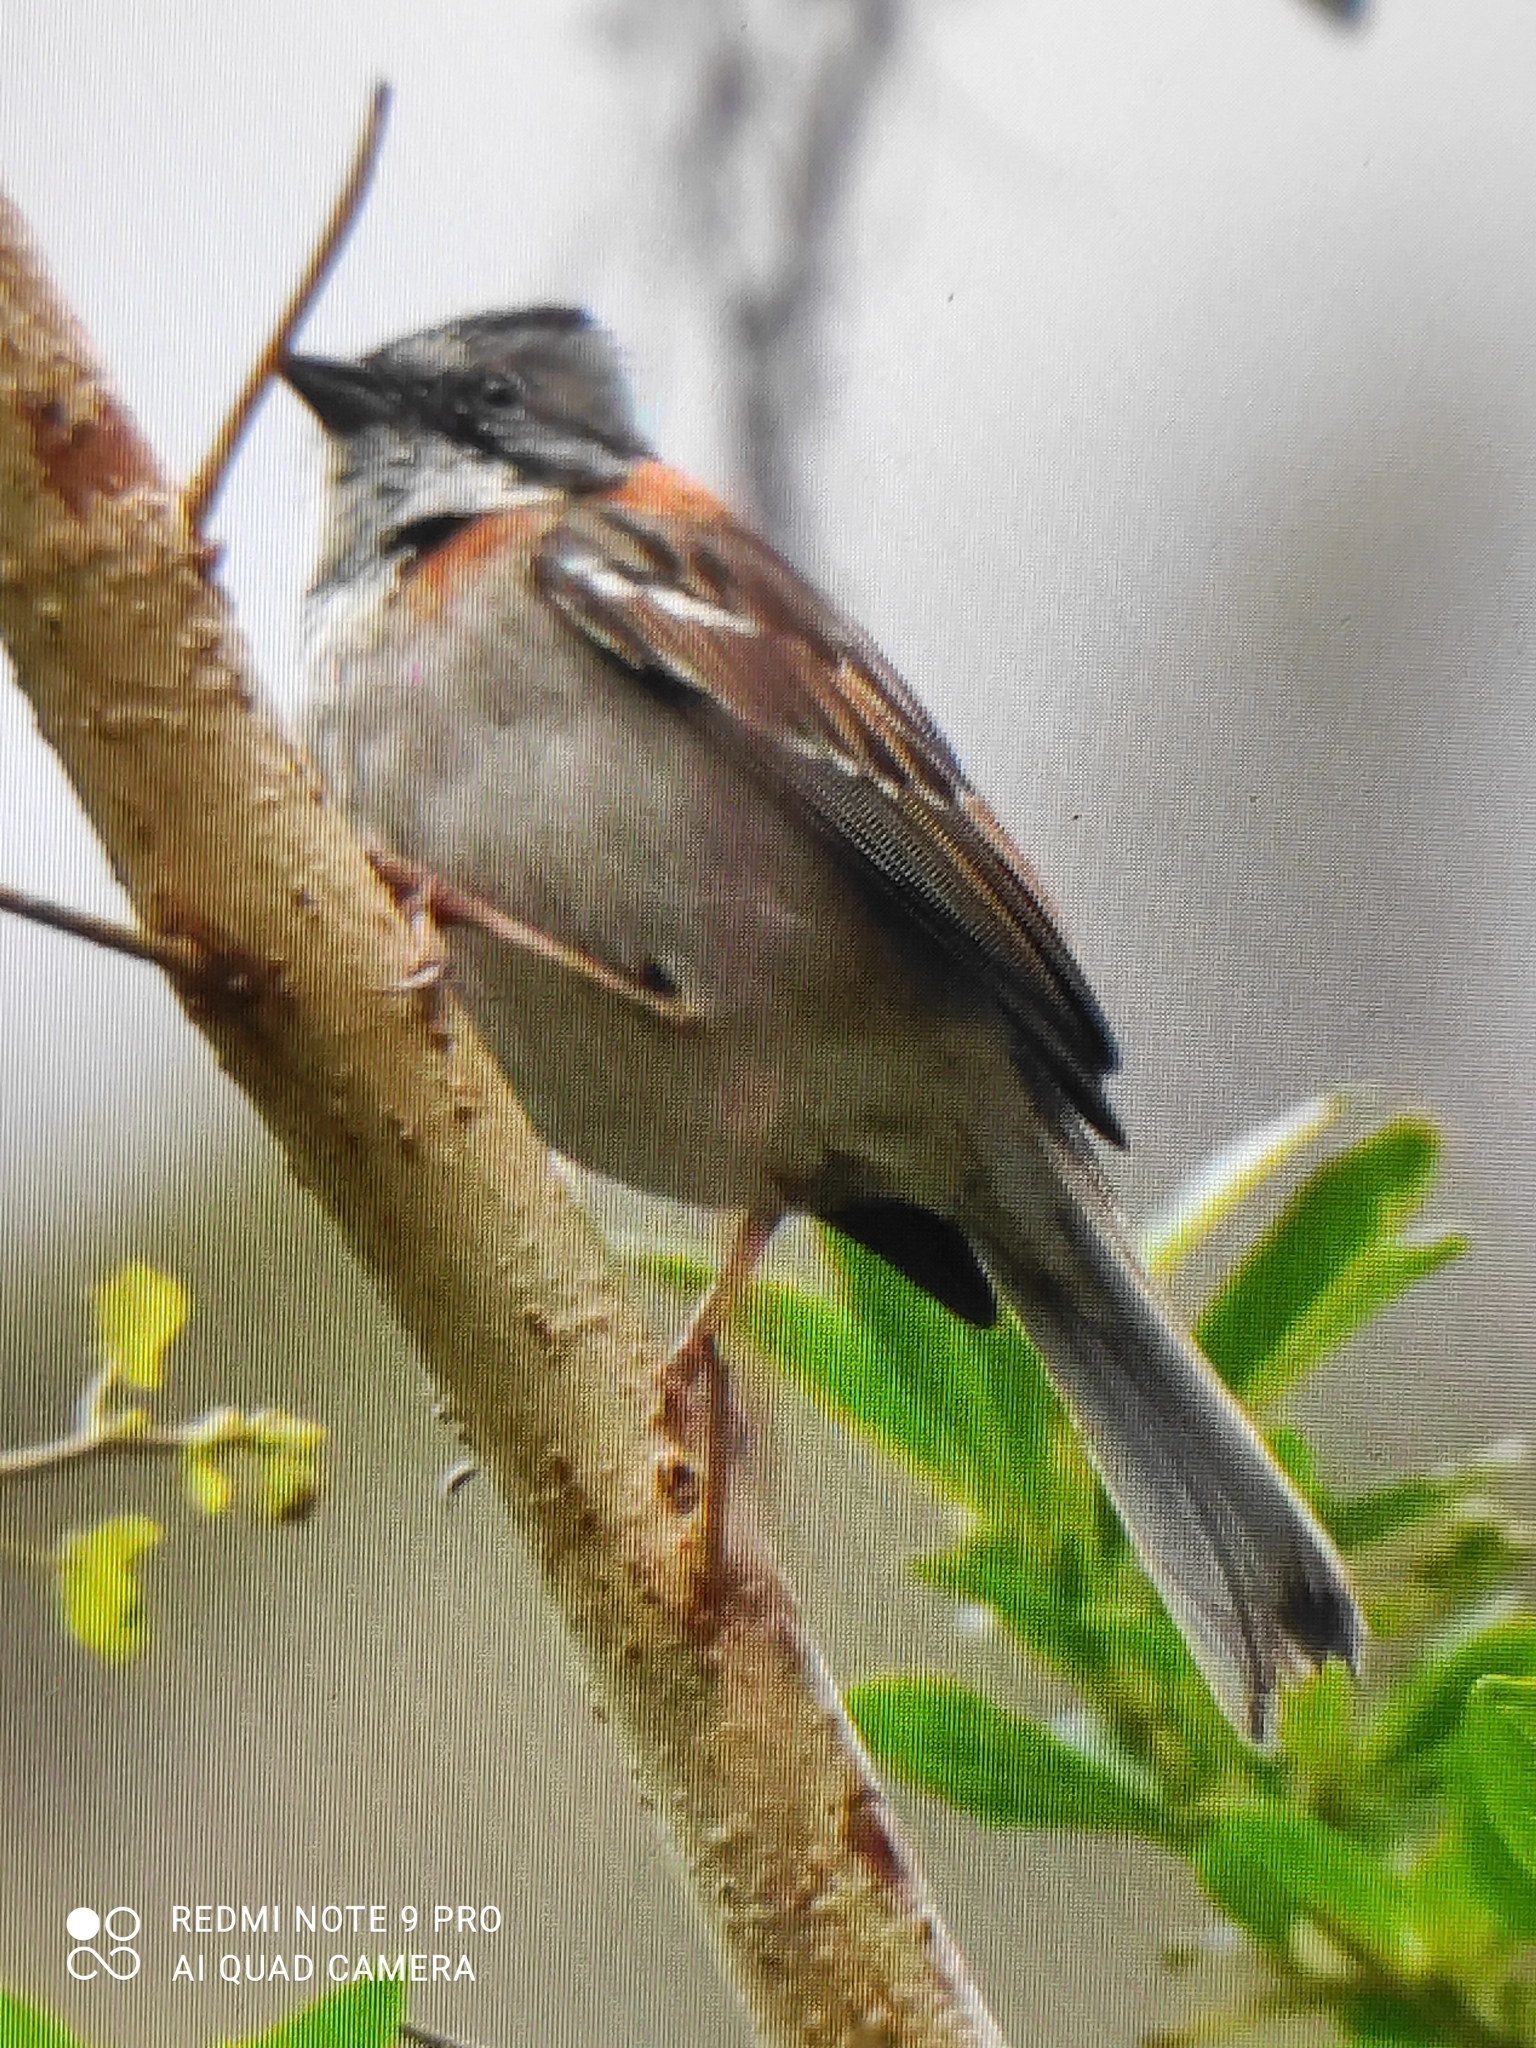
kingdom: Animalia
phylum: Chordata
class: Aves
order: Passeriformes
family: Passerellidae
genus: Zonotrichia
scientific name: Zonotrichia capensis
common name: Rufous-collared sparrow
